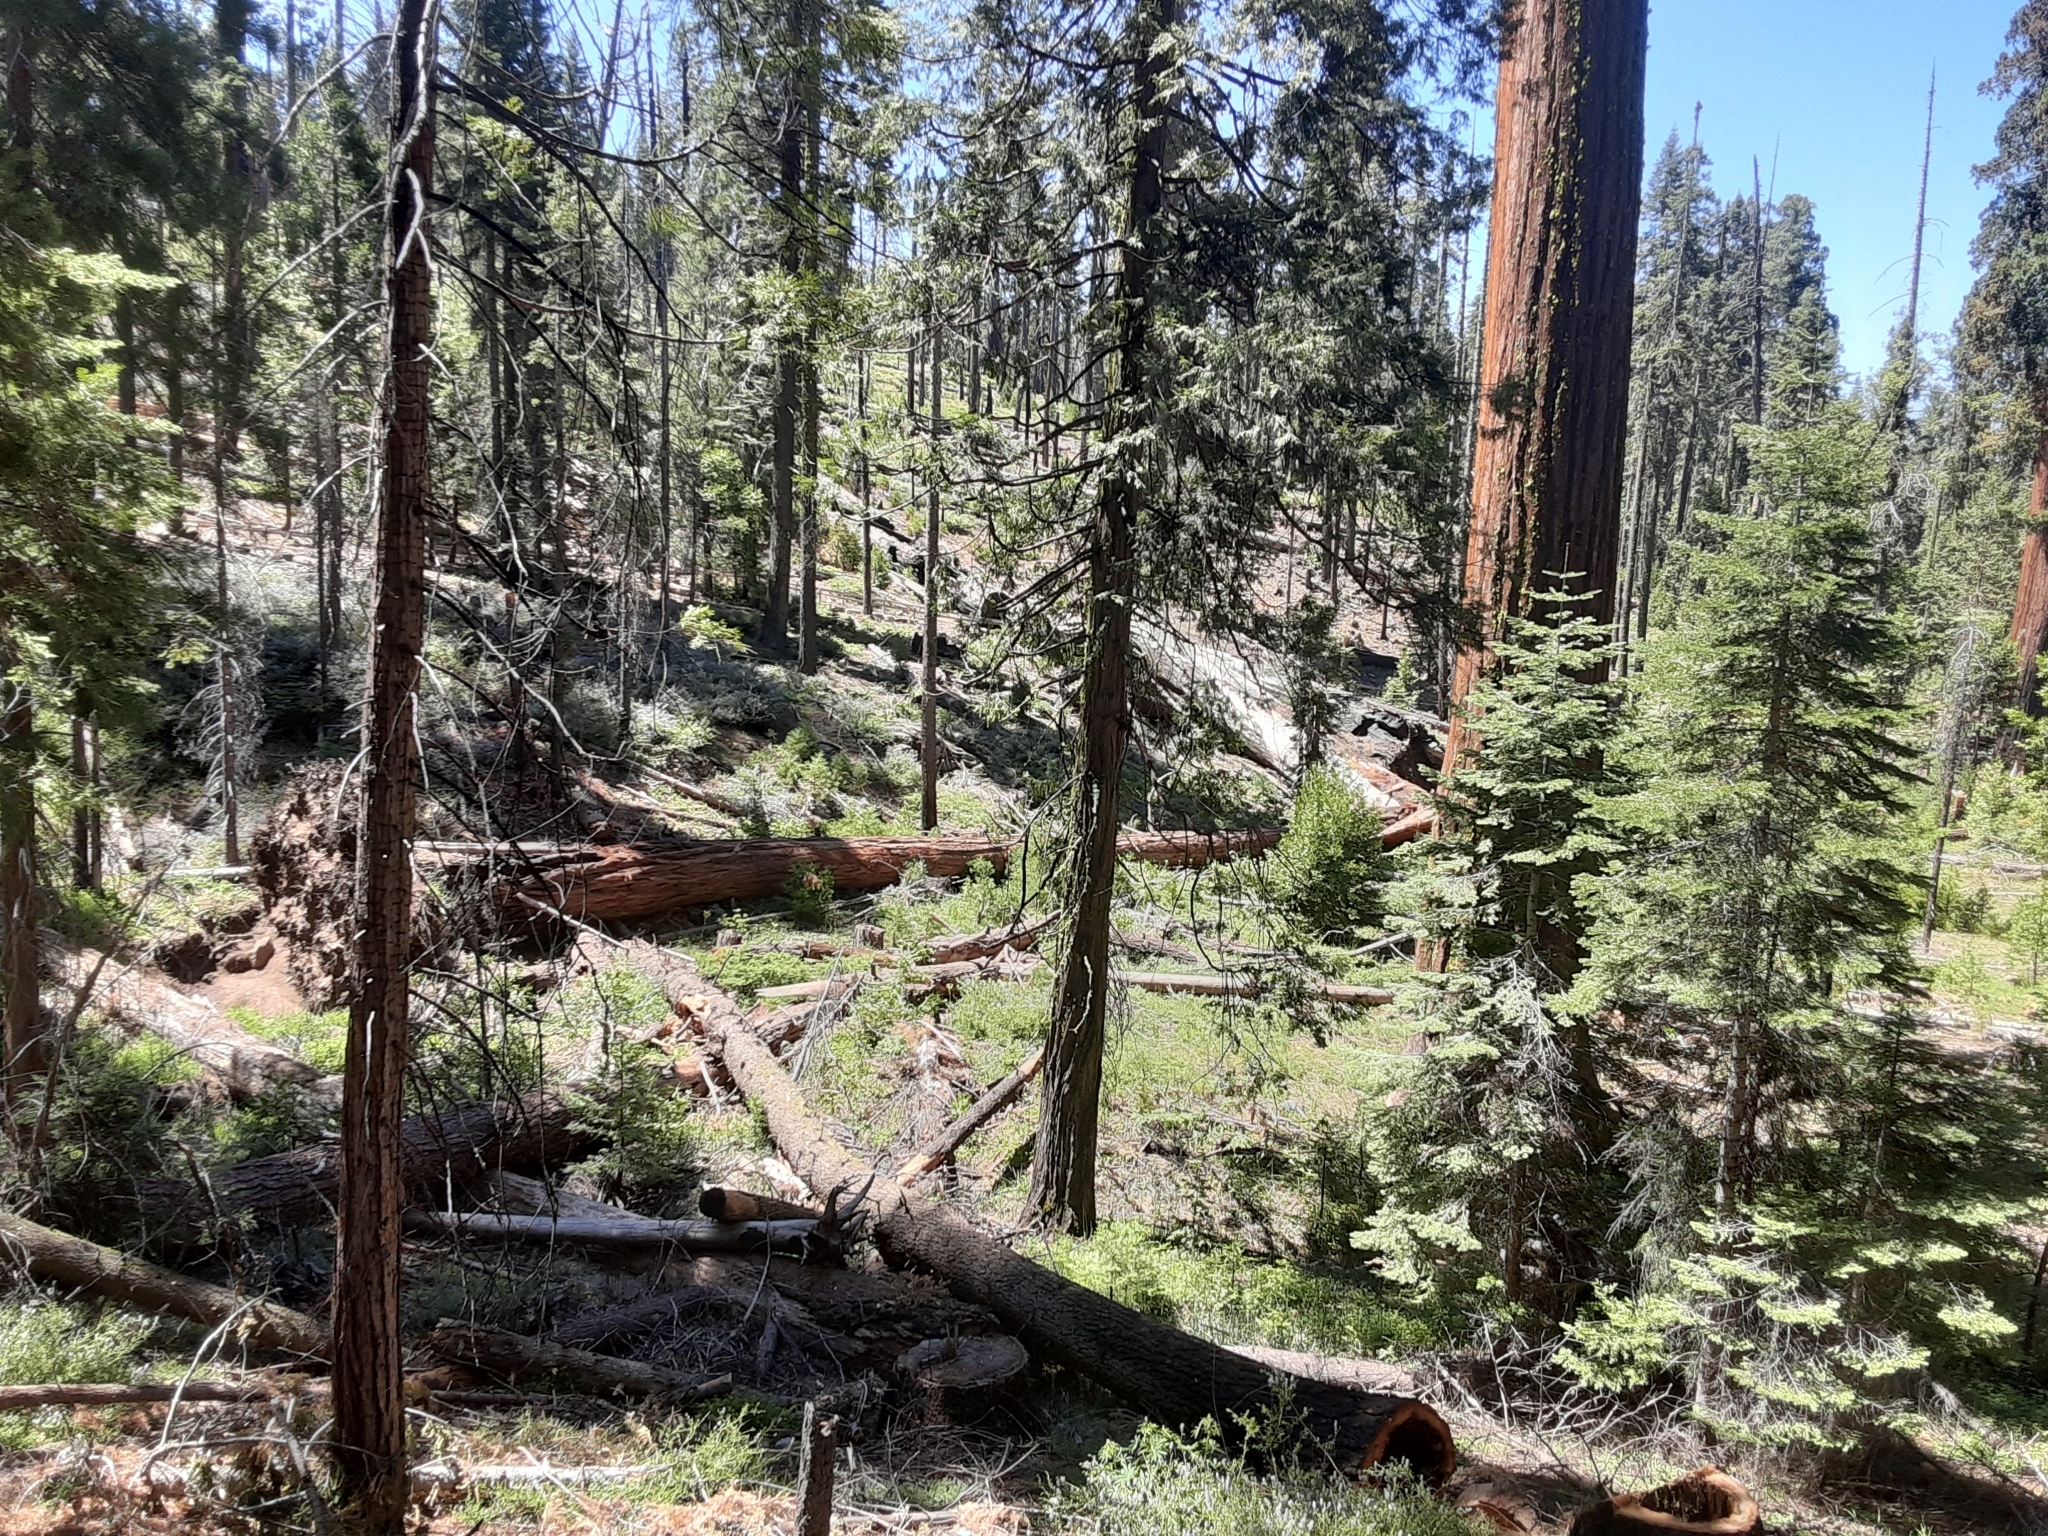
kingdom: Plantae
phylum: Tracheophyta
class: Pinopsida
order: Pinales
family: Cupressaceae
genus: Sequoiadendron
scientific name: Sequoiadendron giganteum
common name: Wellingtonia
